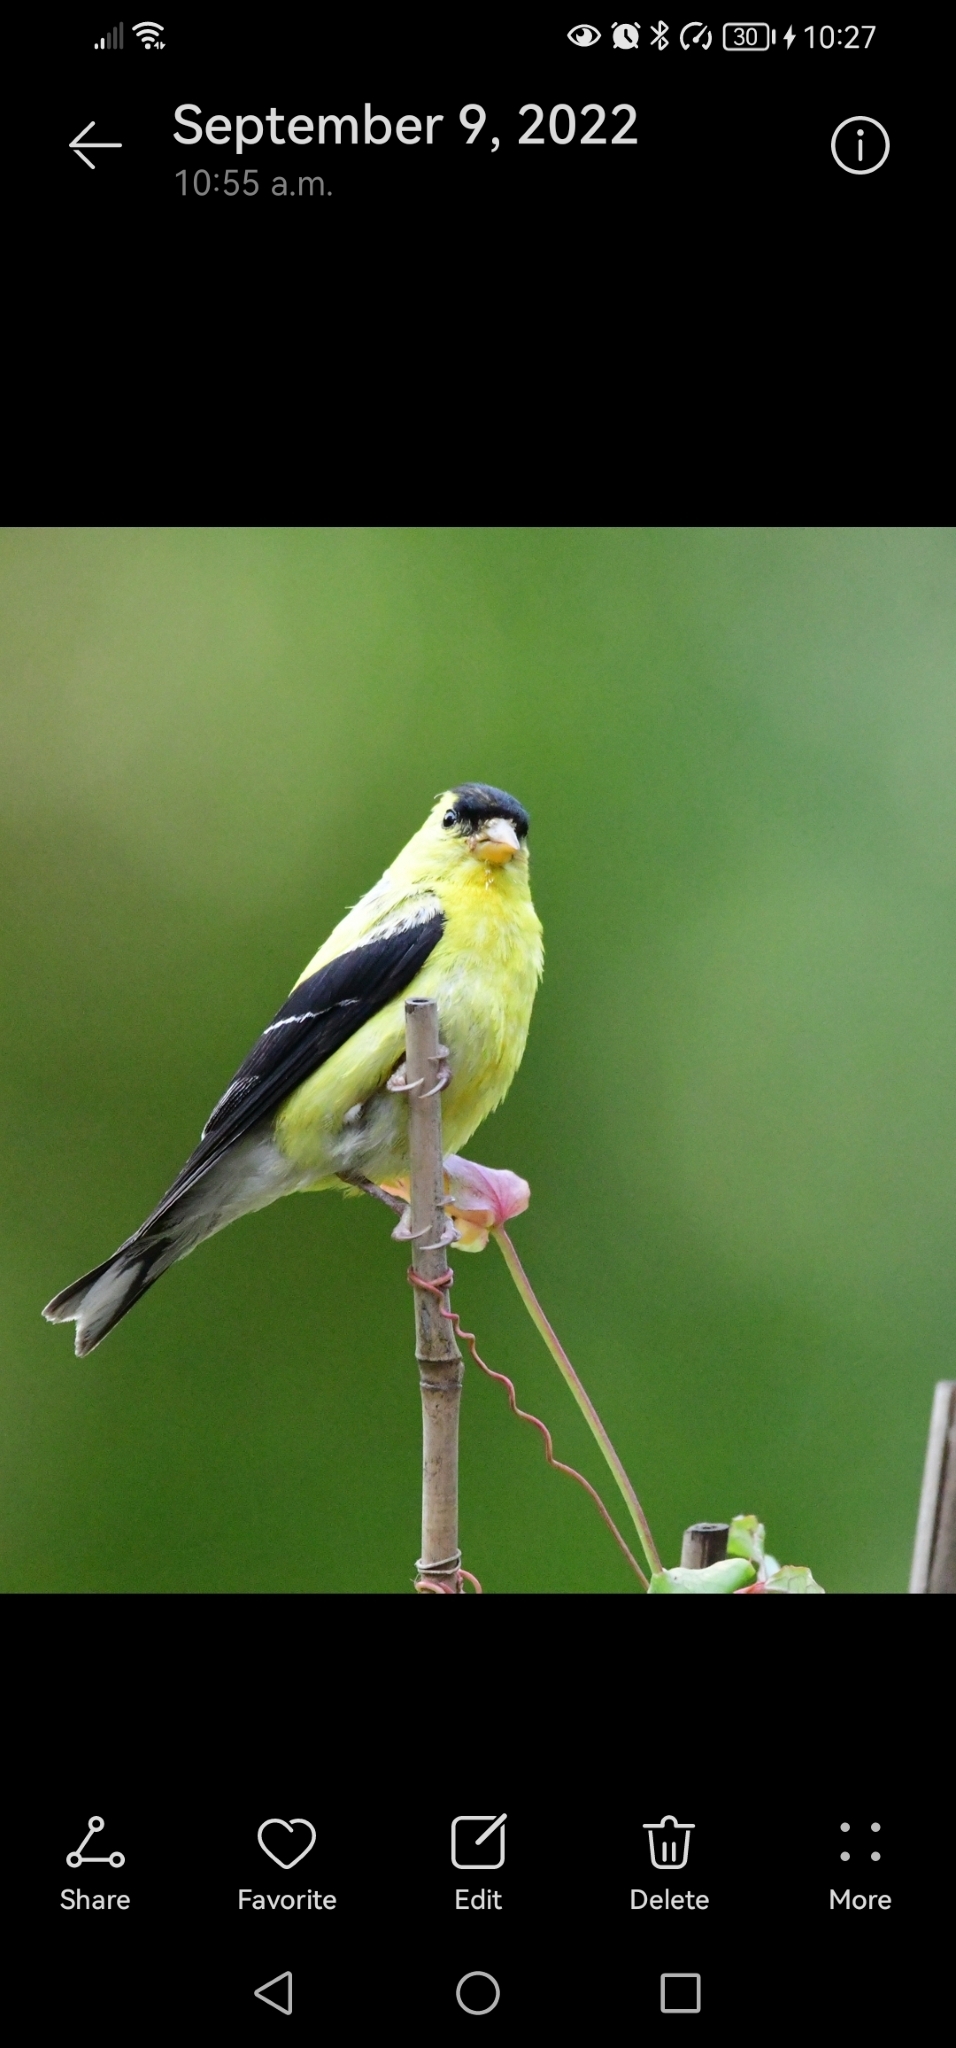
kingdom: Animalia
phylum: Chordata
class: Aves
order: Passeriformes
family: Fringillidae
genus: Spinus
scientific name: Spinus tristis
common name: American goldfinch
